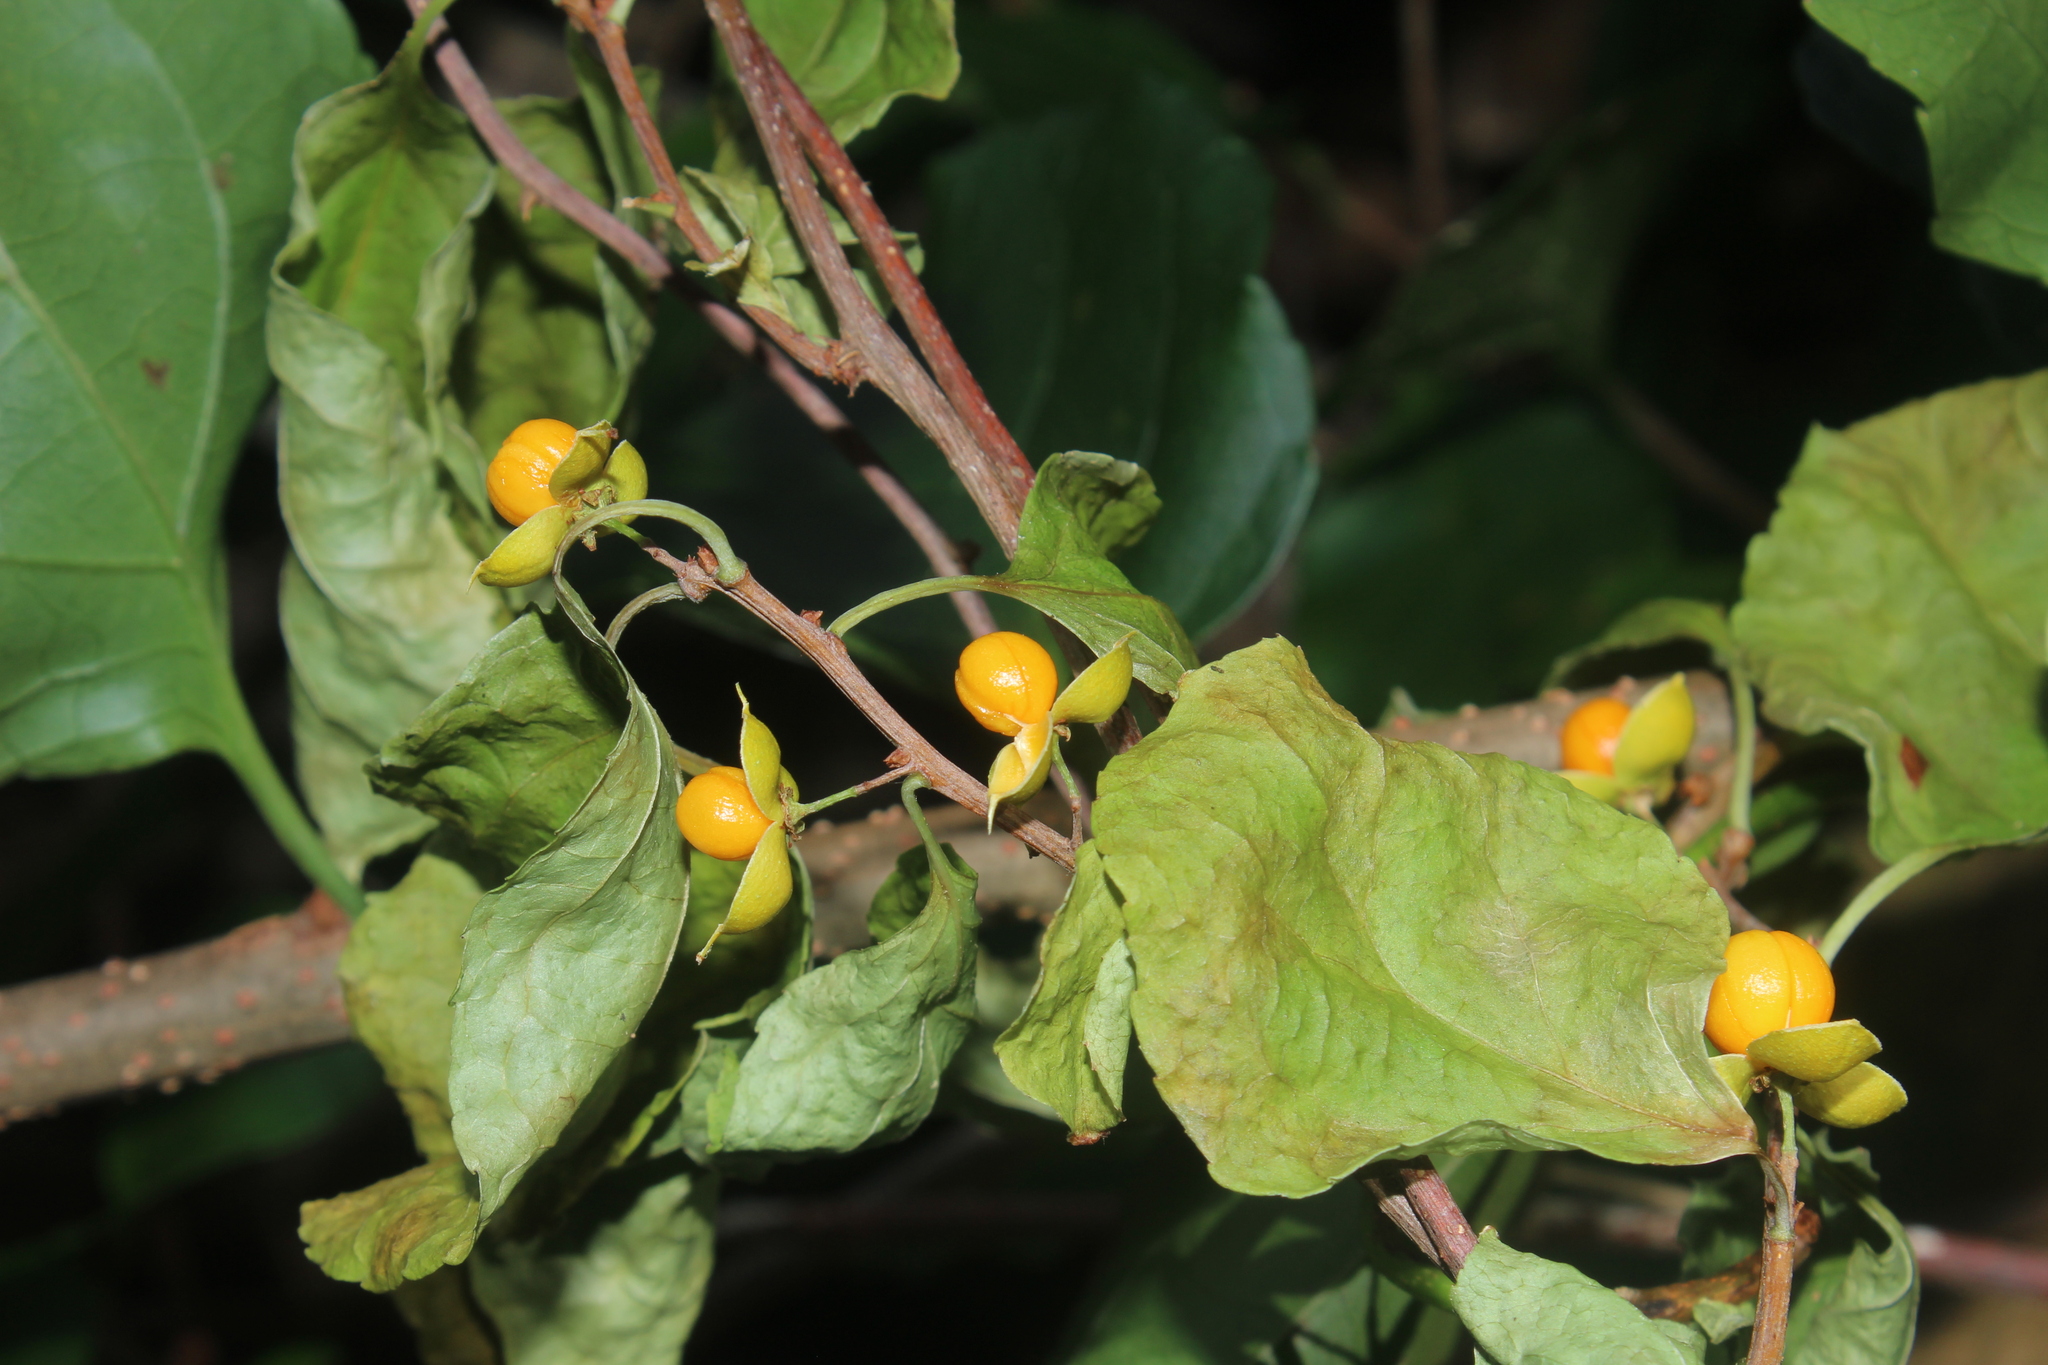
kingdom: Plantae
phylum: Tracheophyta
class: Magnoliopsida
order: Celastrales
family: Celastraceae
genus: Celastrus
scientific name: Celastrus orbiculatus
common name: Oriental bittersweet
